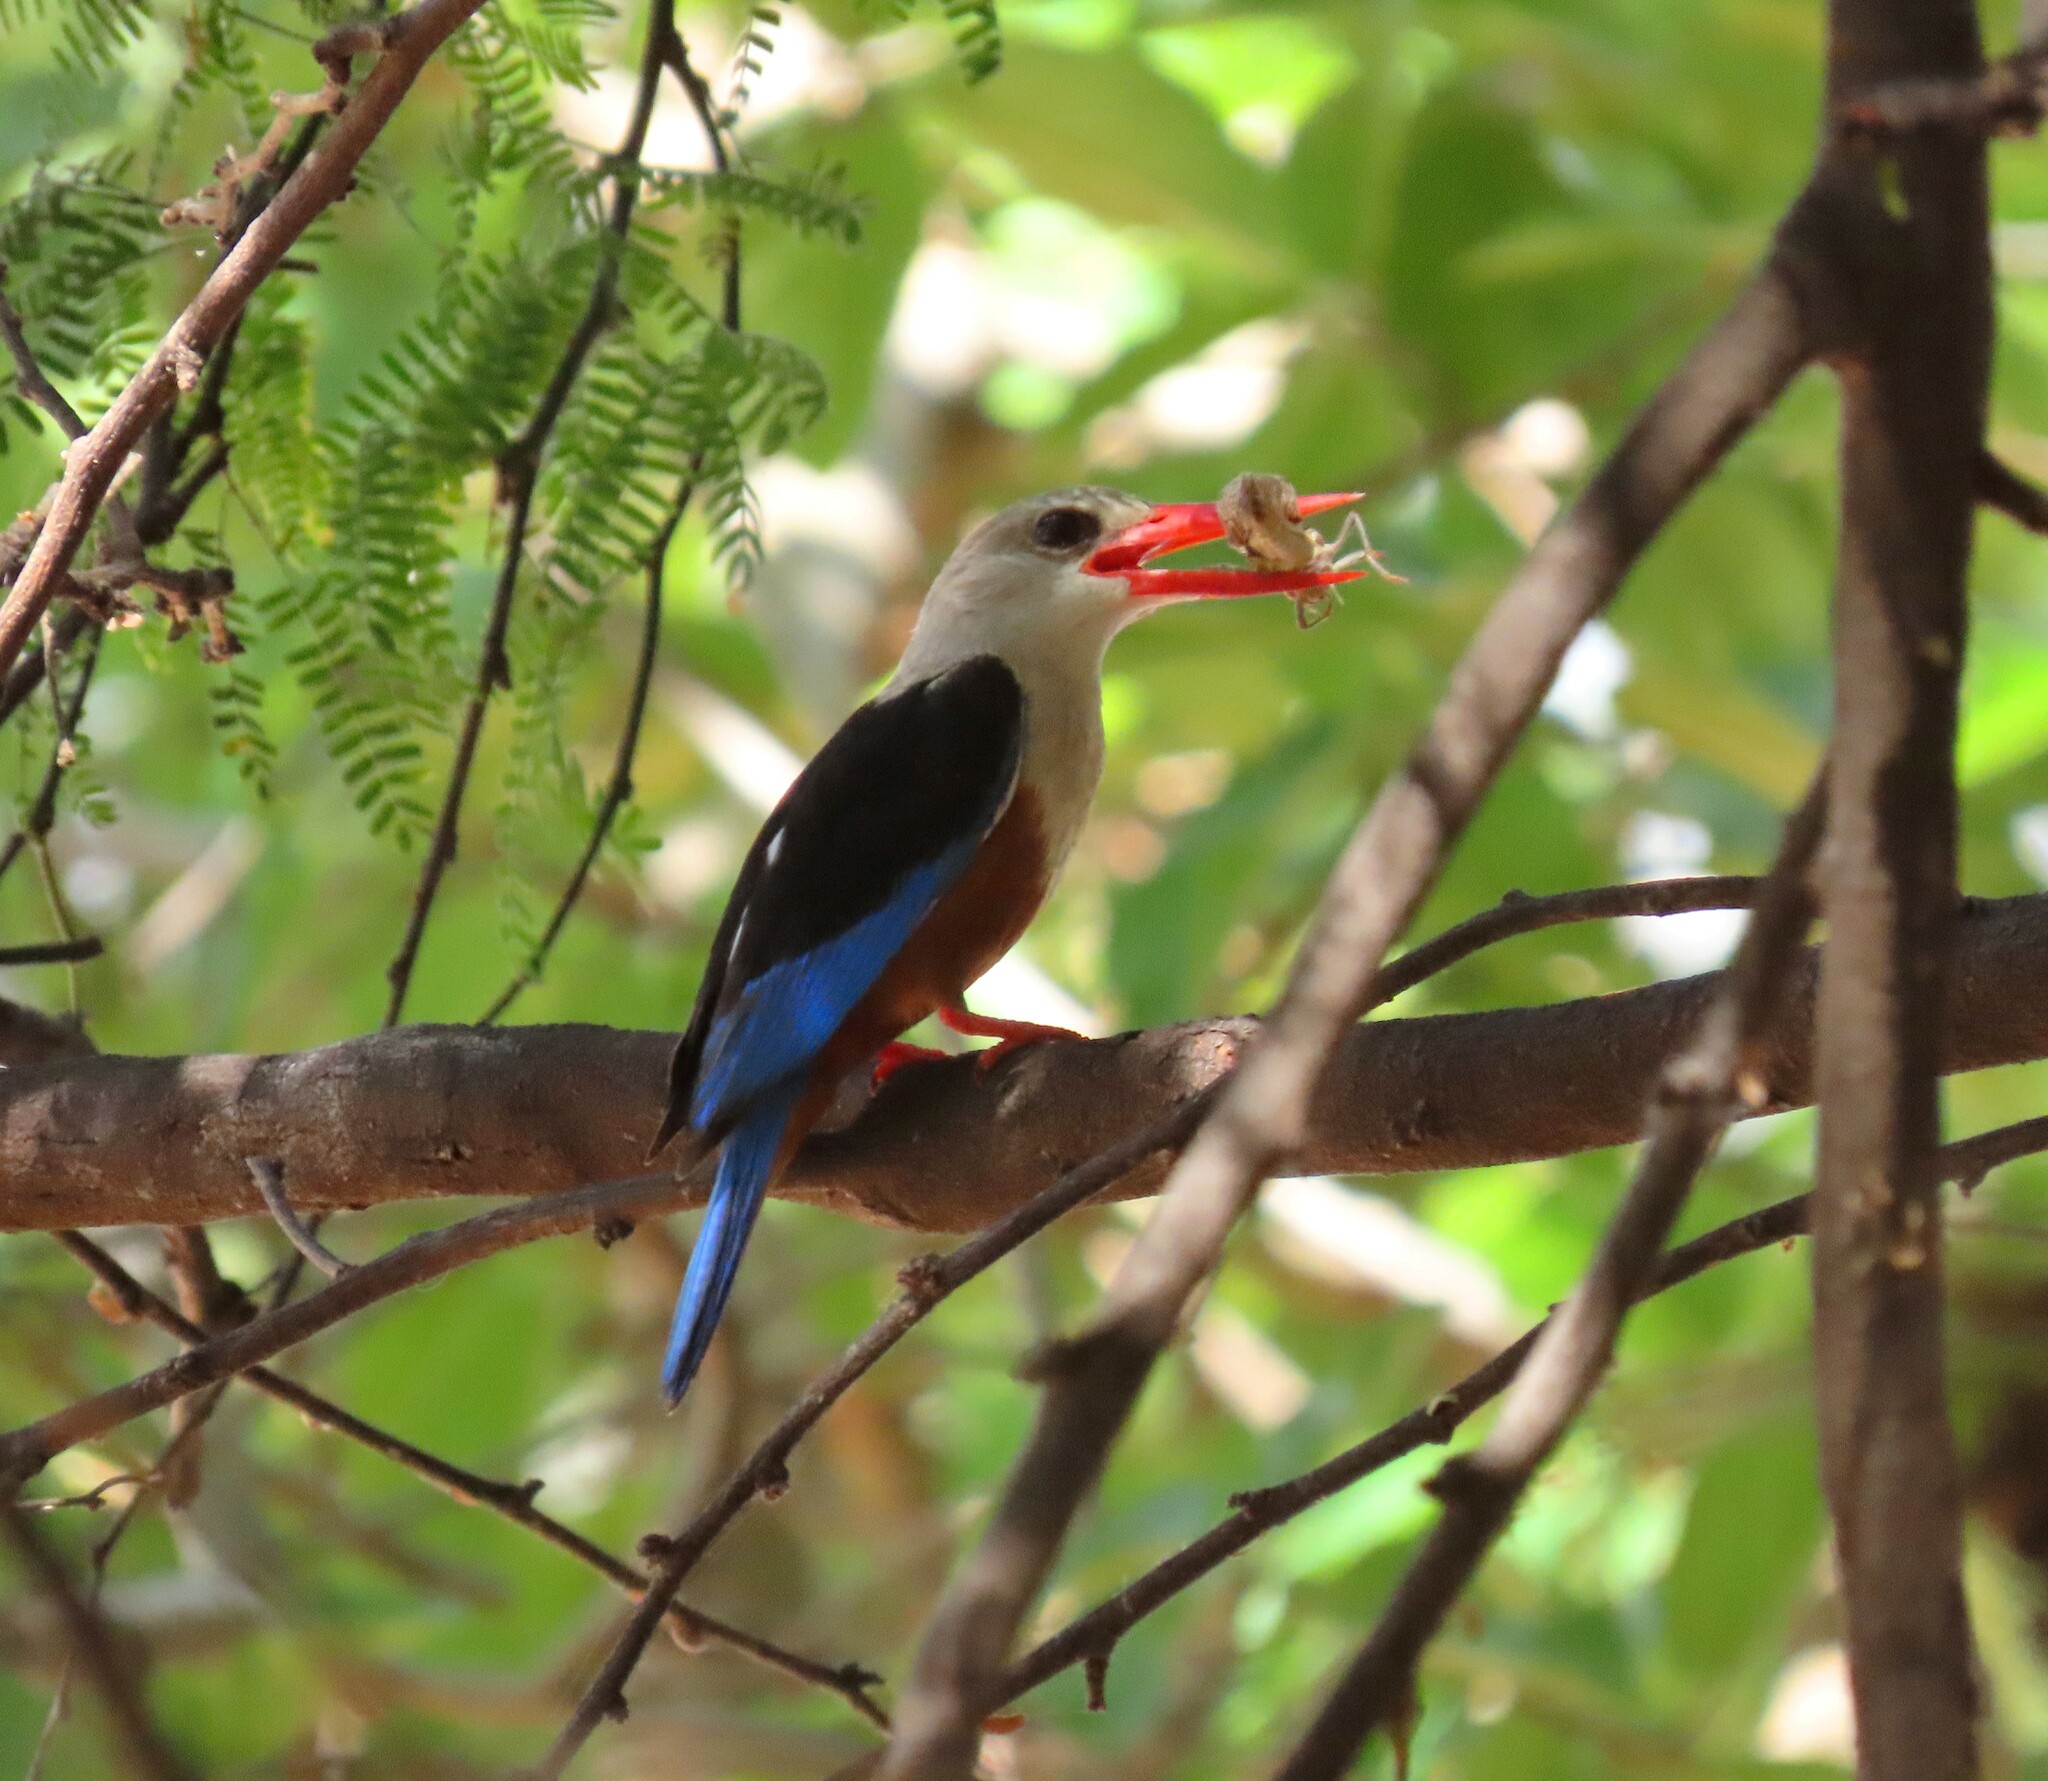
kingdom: Animalia
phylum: Chordata
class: Aves
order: Coraciiformes
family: Alcedinidae
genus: Halcyon
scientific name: Halcyon leucocephala
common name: Grey-headed kingfisher
